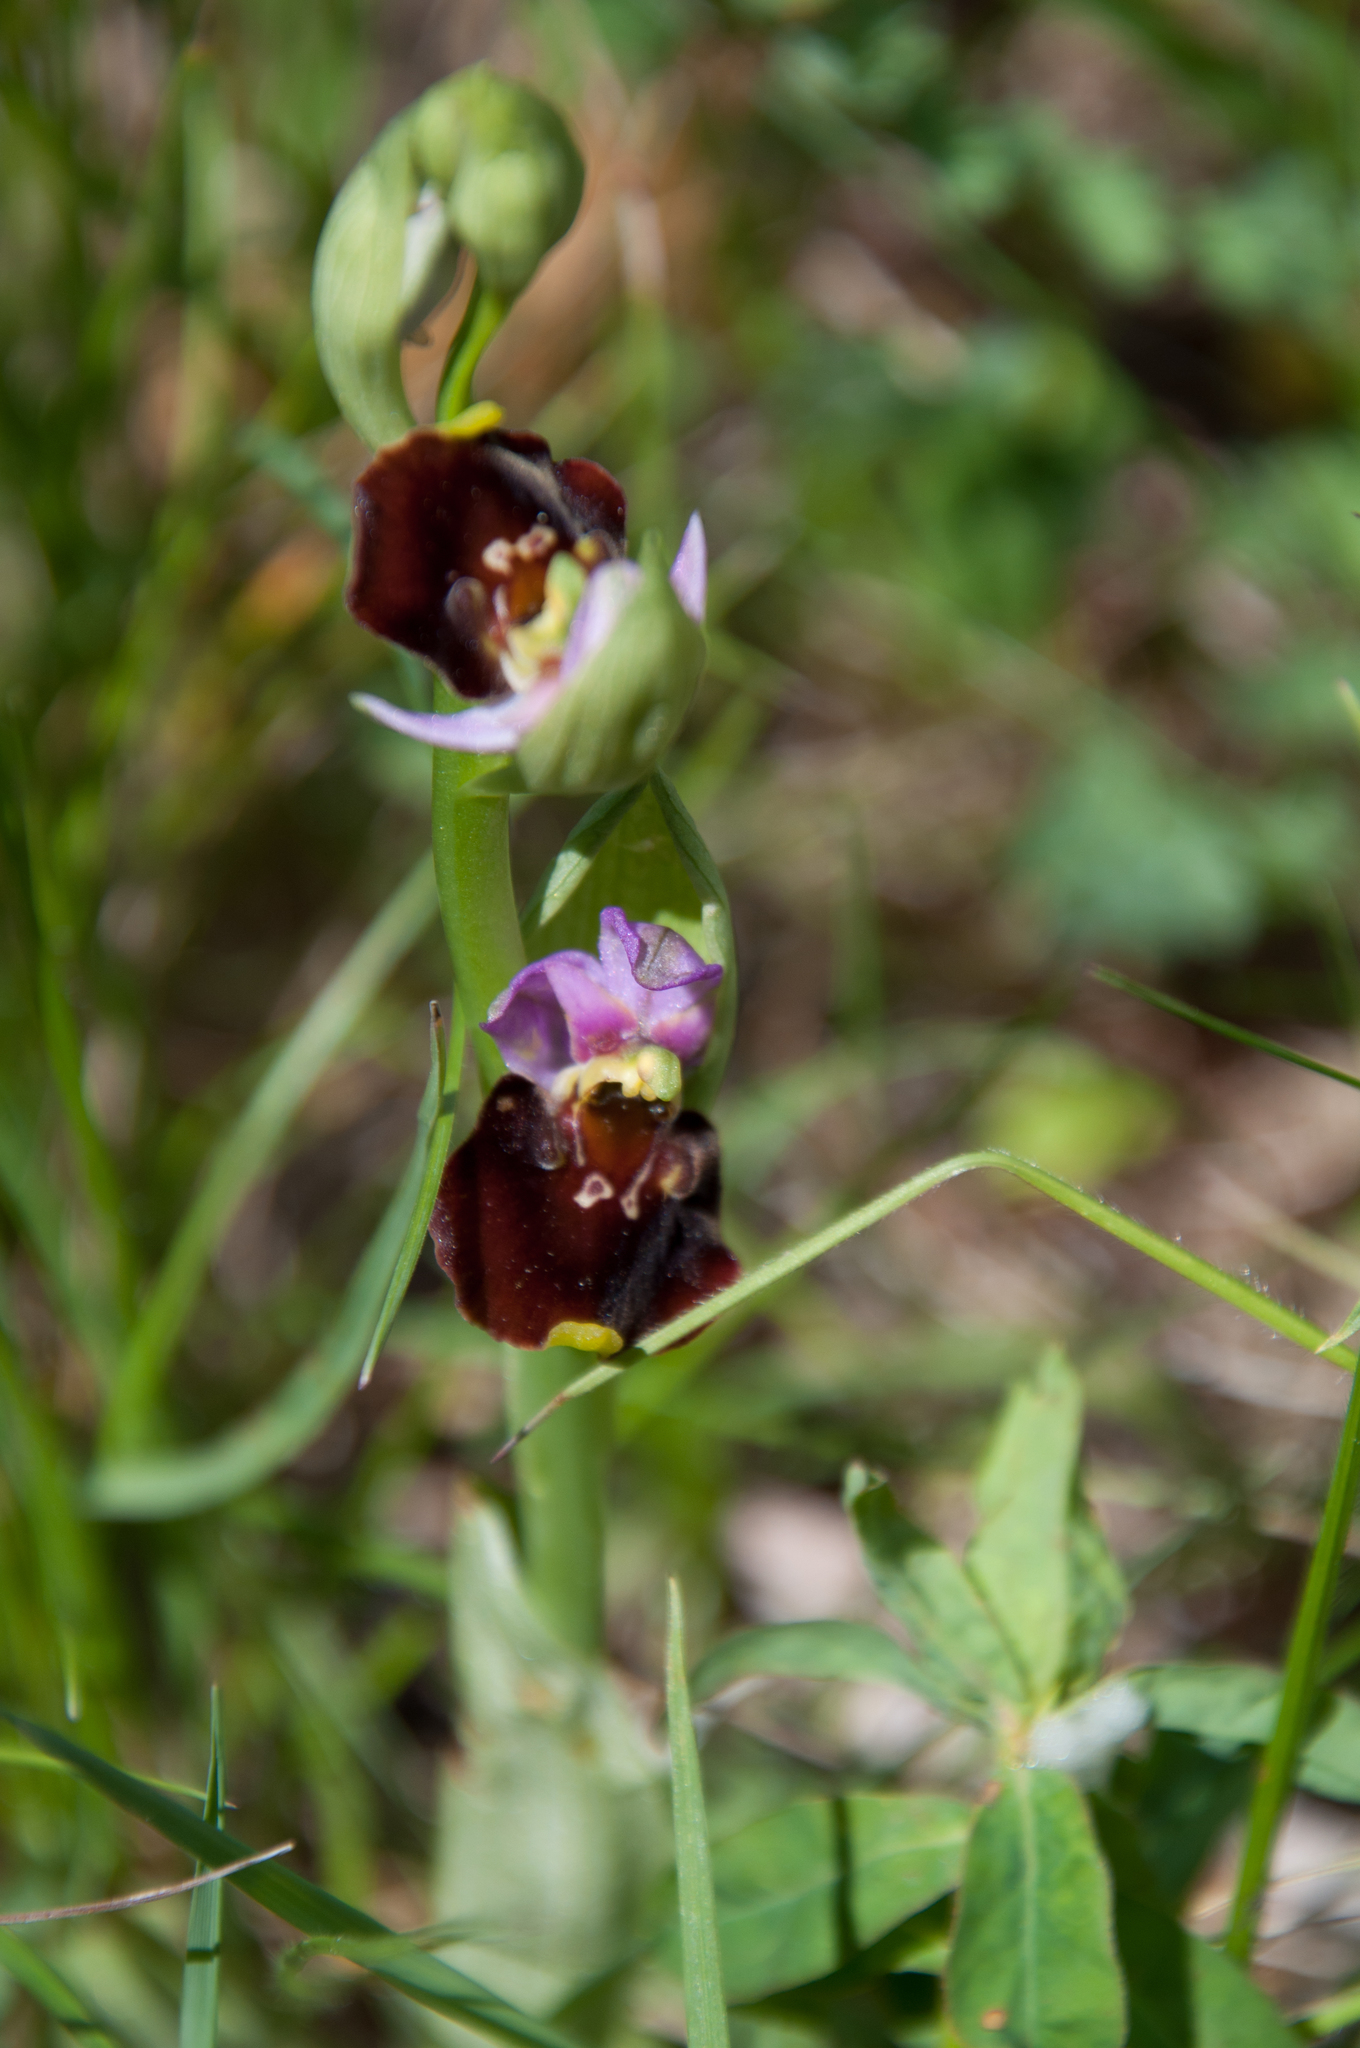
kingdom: Plantae
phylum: Tracheophyta
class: Liliopsida
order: Asparagales
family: Orchidaceae
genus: Ophrys
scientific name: Ophrys holosericea
